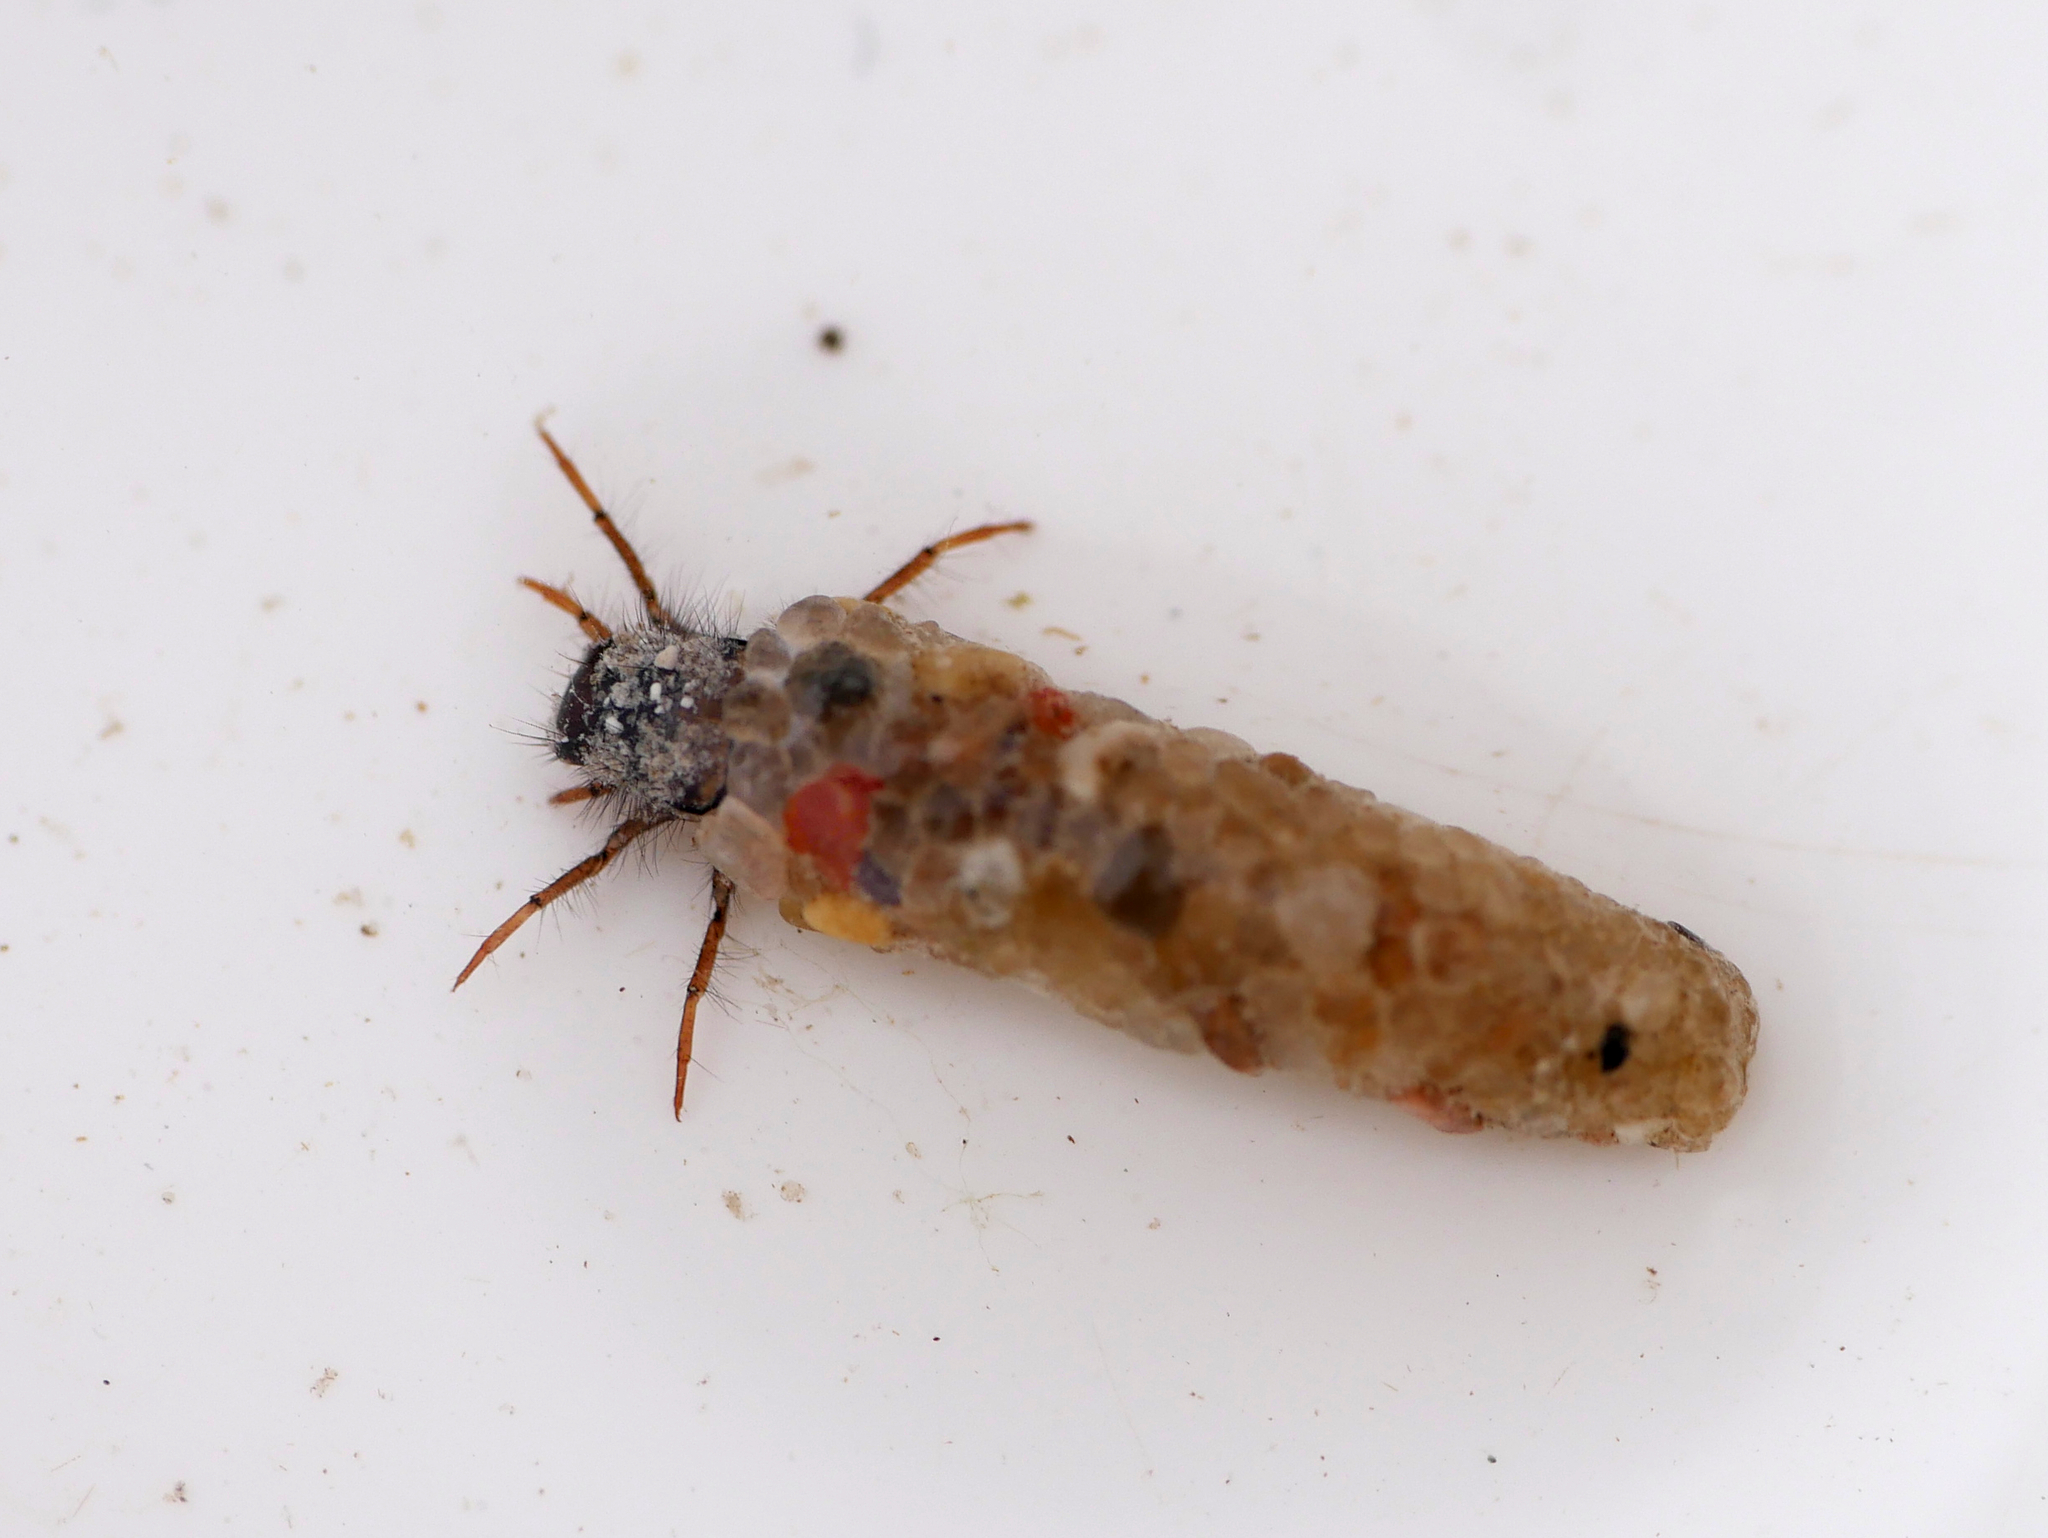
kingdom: Animalia
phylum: Arthropoda
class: Insecta
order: Trichoptera
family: Apataniidae
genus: Apatania
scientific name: Apatania muliebris
